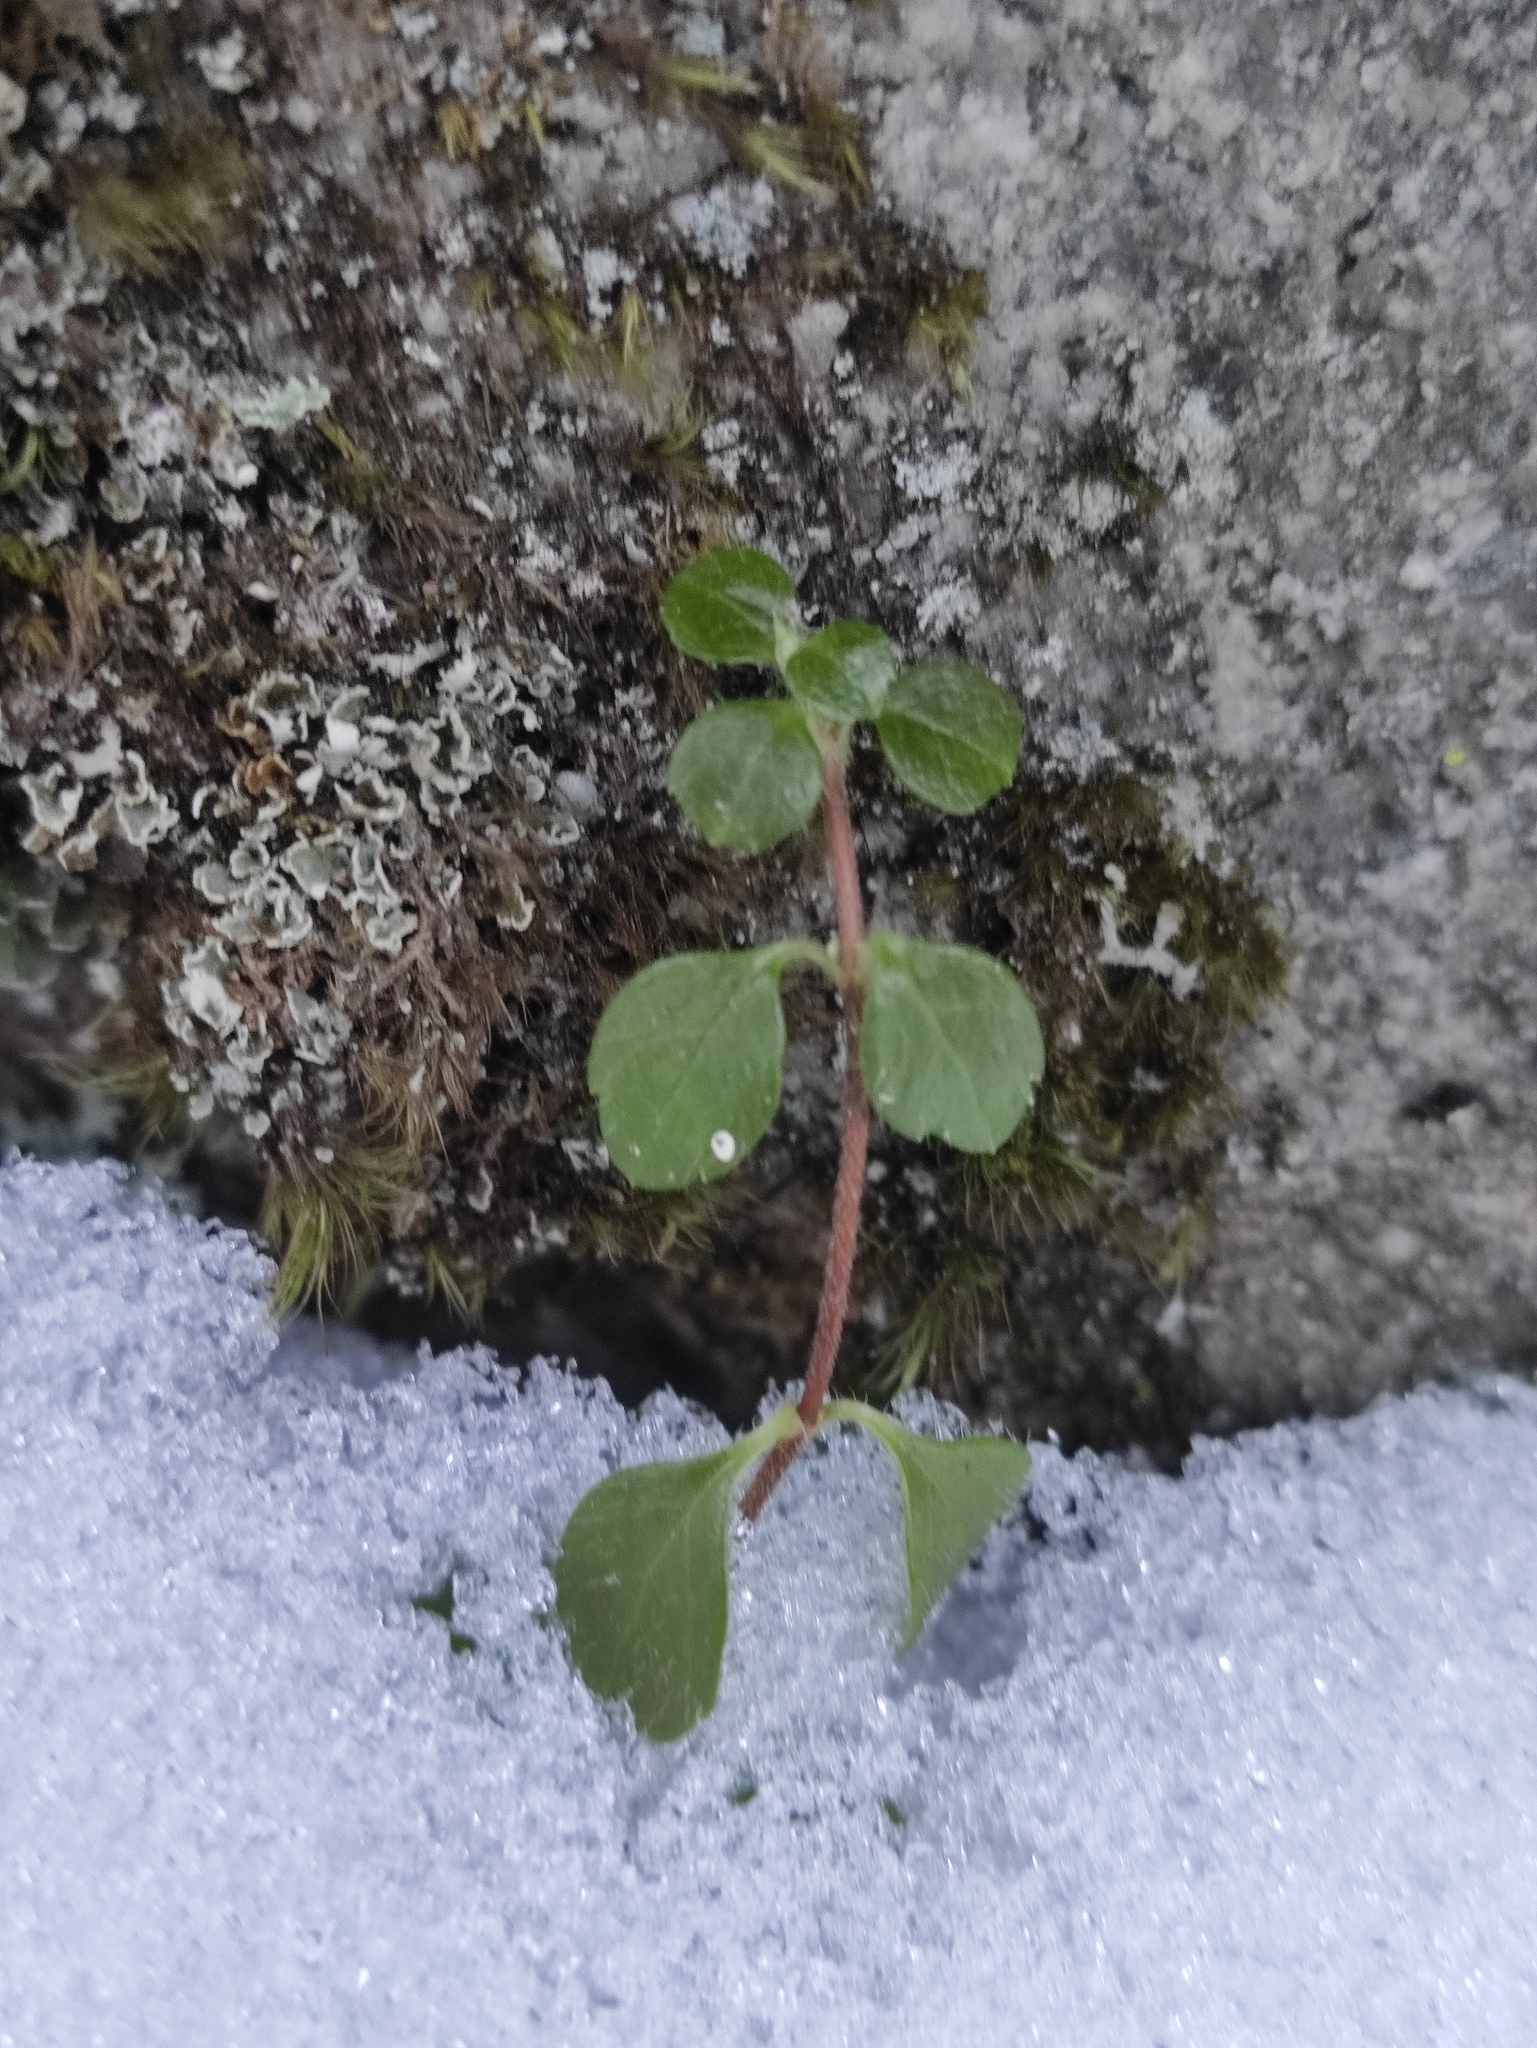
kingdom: Plantae
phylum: Tracheophyta
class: Magnoliopsida
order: Dipsacales
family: Caprifoliaceae
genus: Linnaea
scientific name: Linnaea borealis
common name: Twinflower
